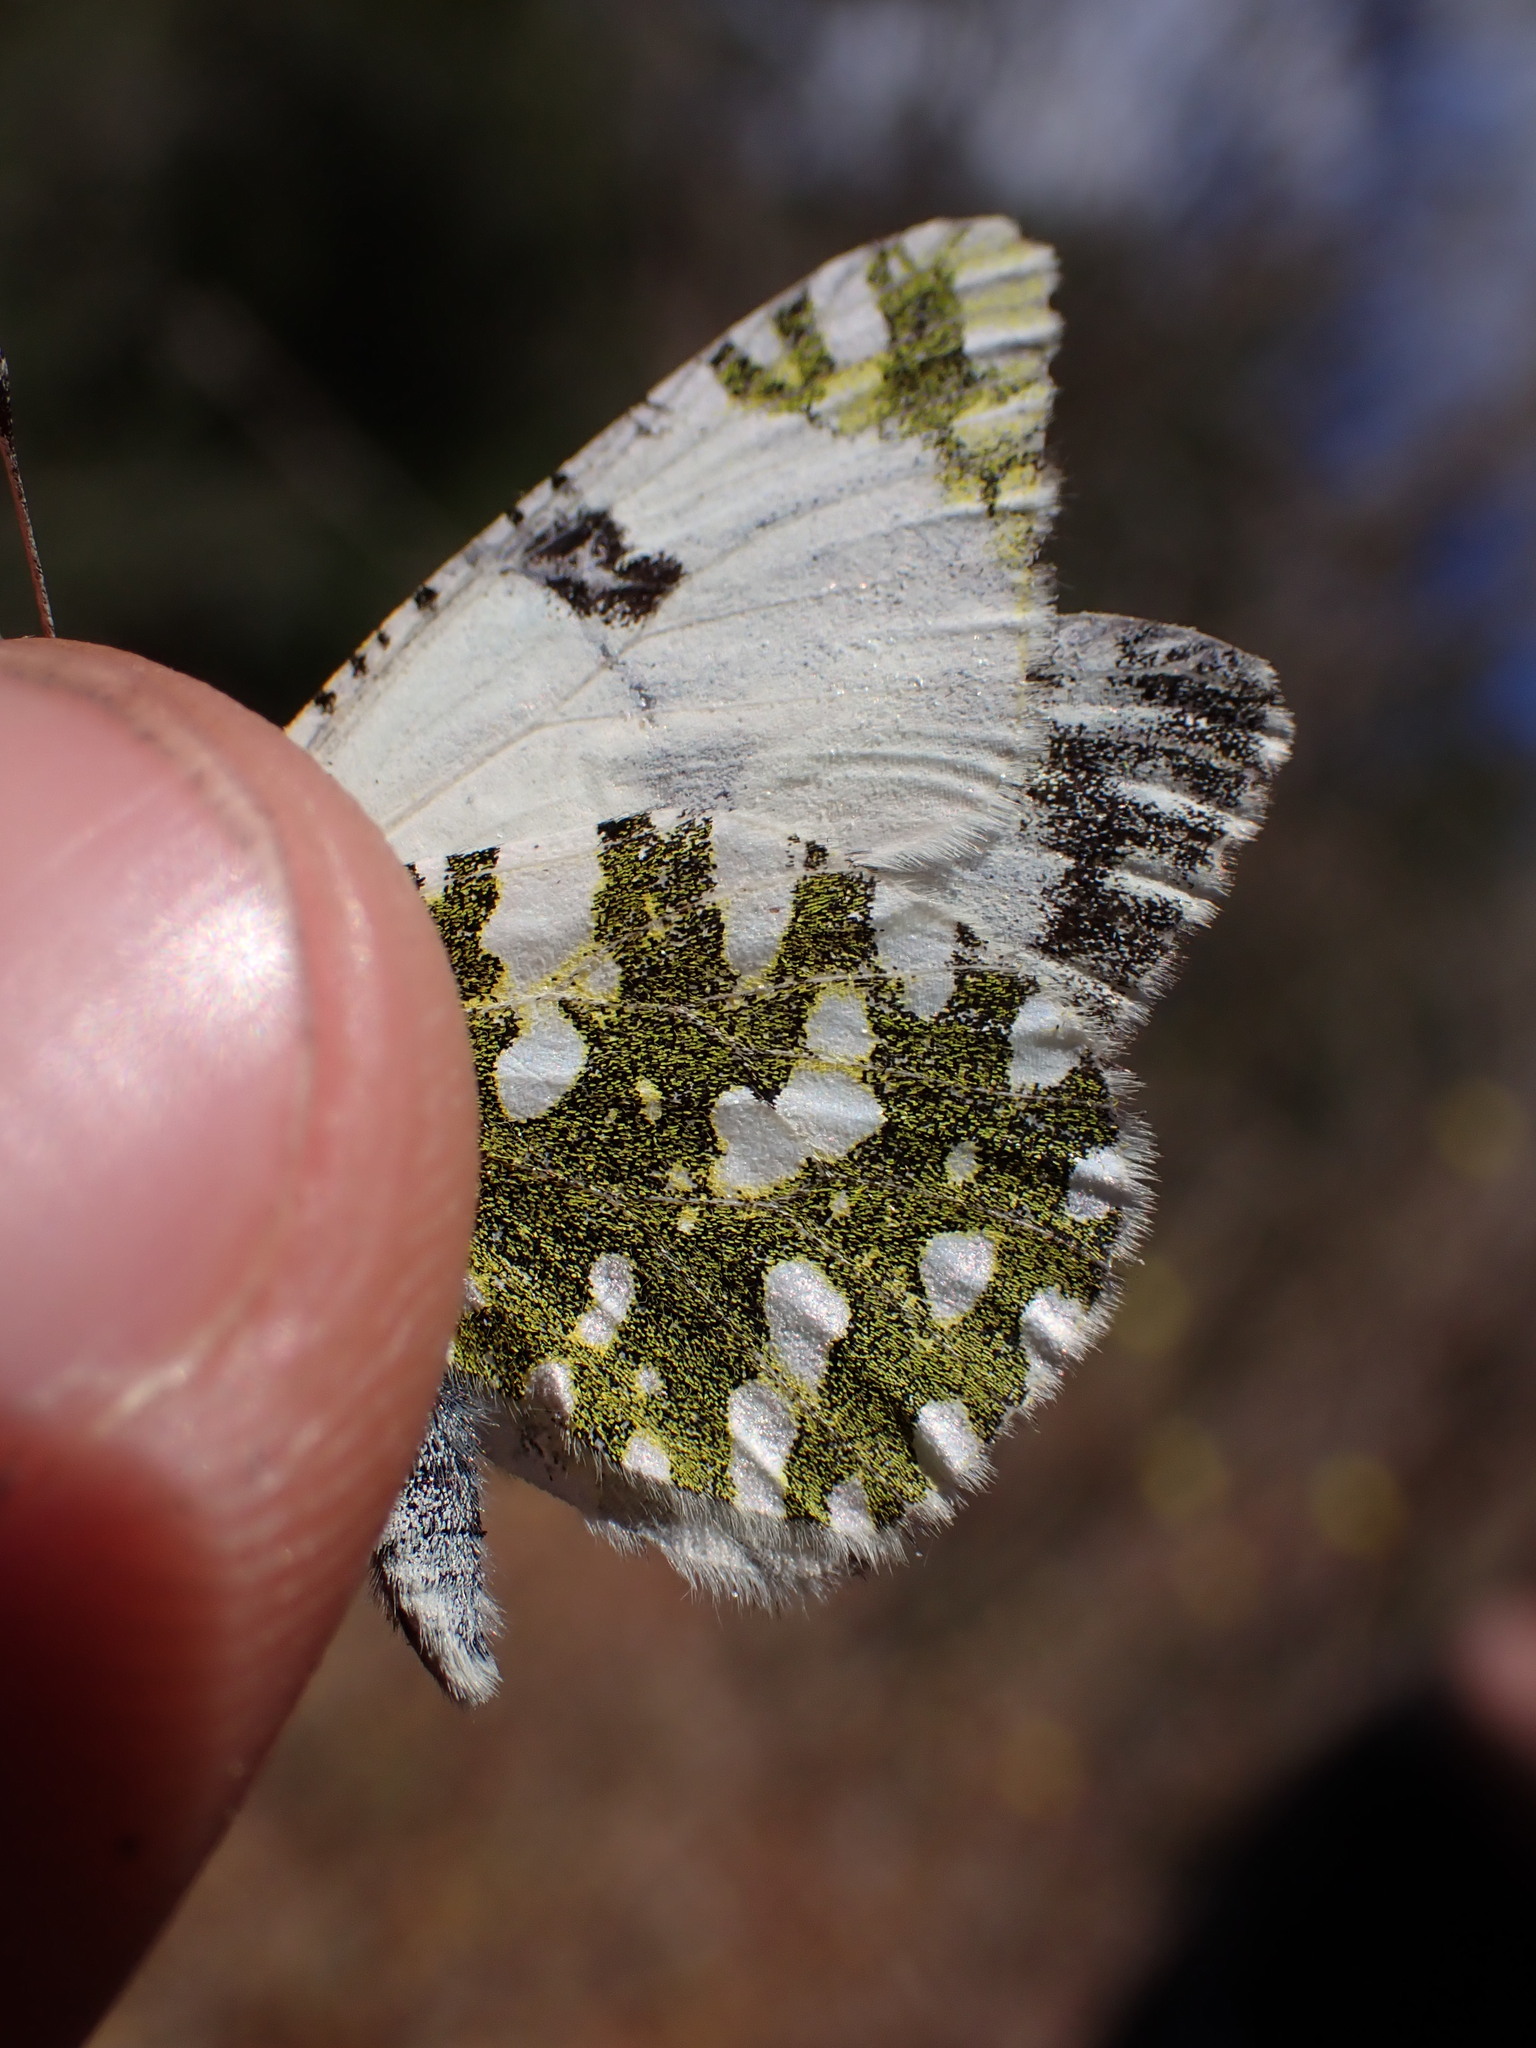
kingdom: Animalia
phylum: Arthropoda
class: Insecta
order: Lepidoptera
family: Pieridae
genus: Euchloe
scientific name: Euchloe crameri
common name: Western dappled white
